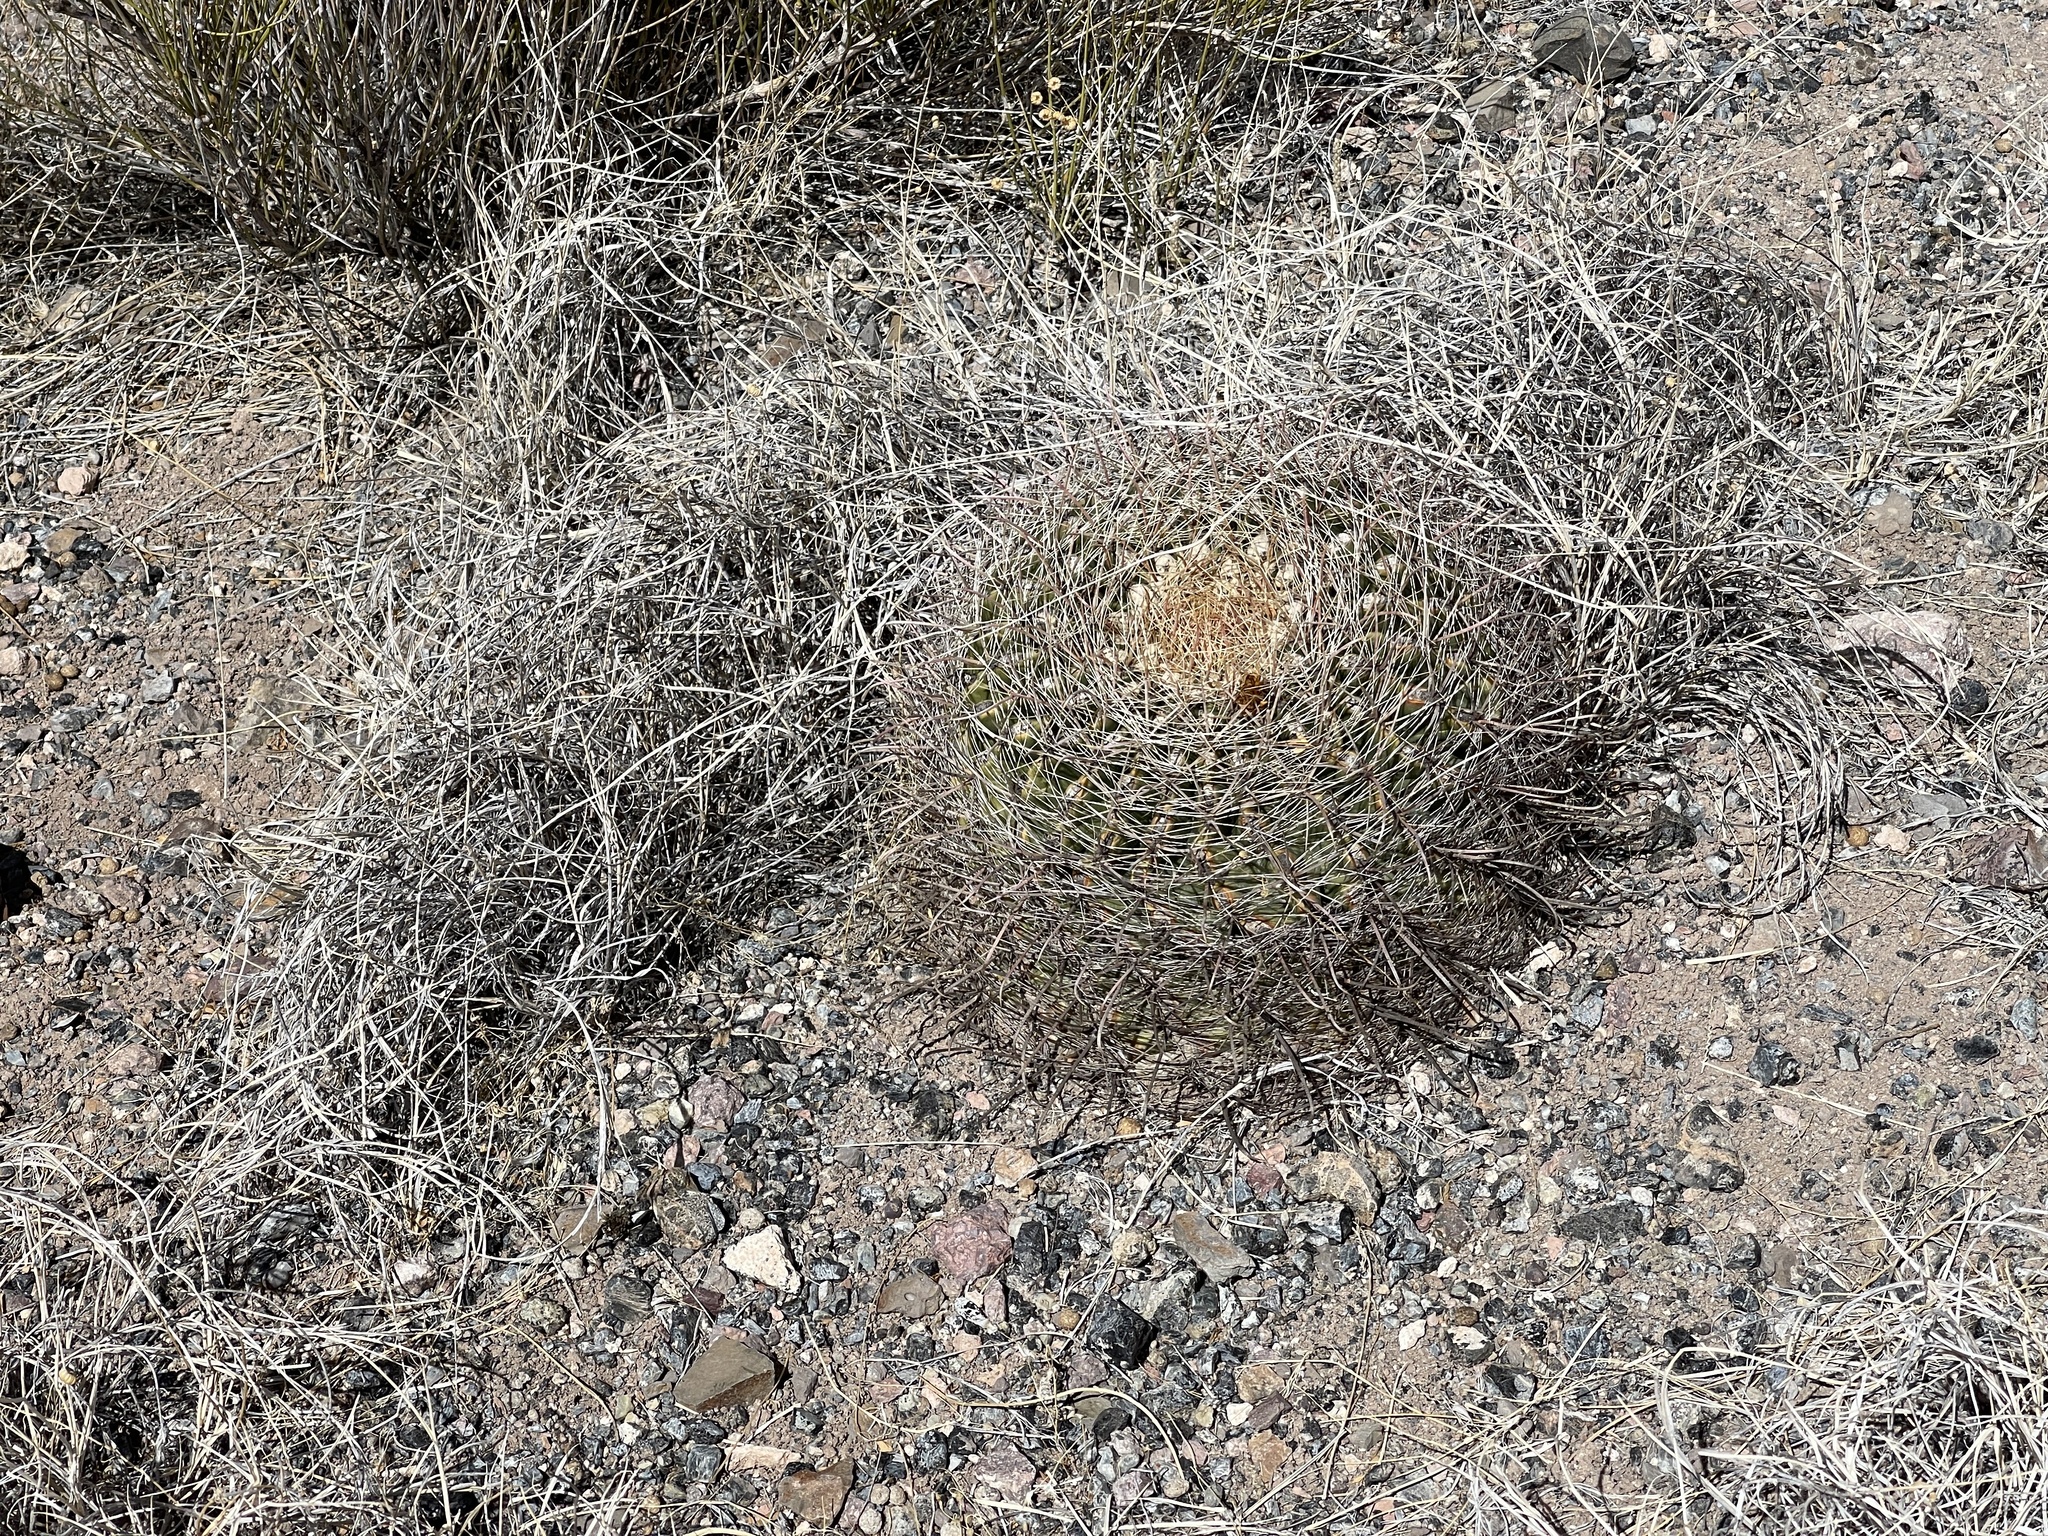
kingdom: Plantae
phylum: Tracheophyta
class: Magnoliopsida
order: Caryophyllales
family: Cactaceae
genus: Ferocactus
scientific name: Ferocactus wislizeni
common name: Candy barrel cactus
